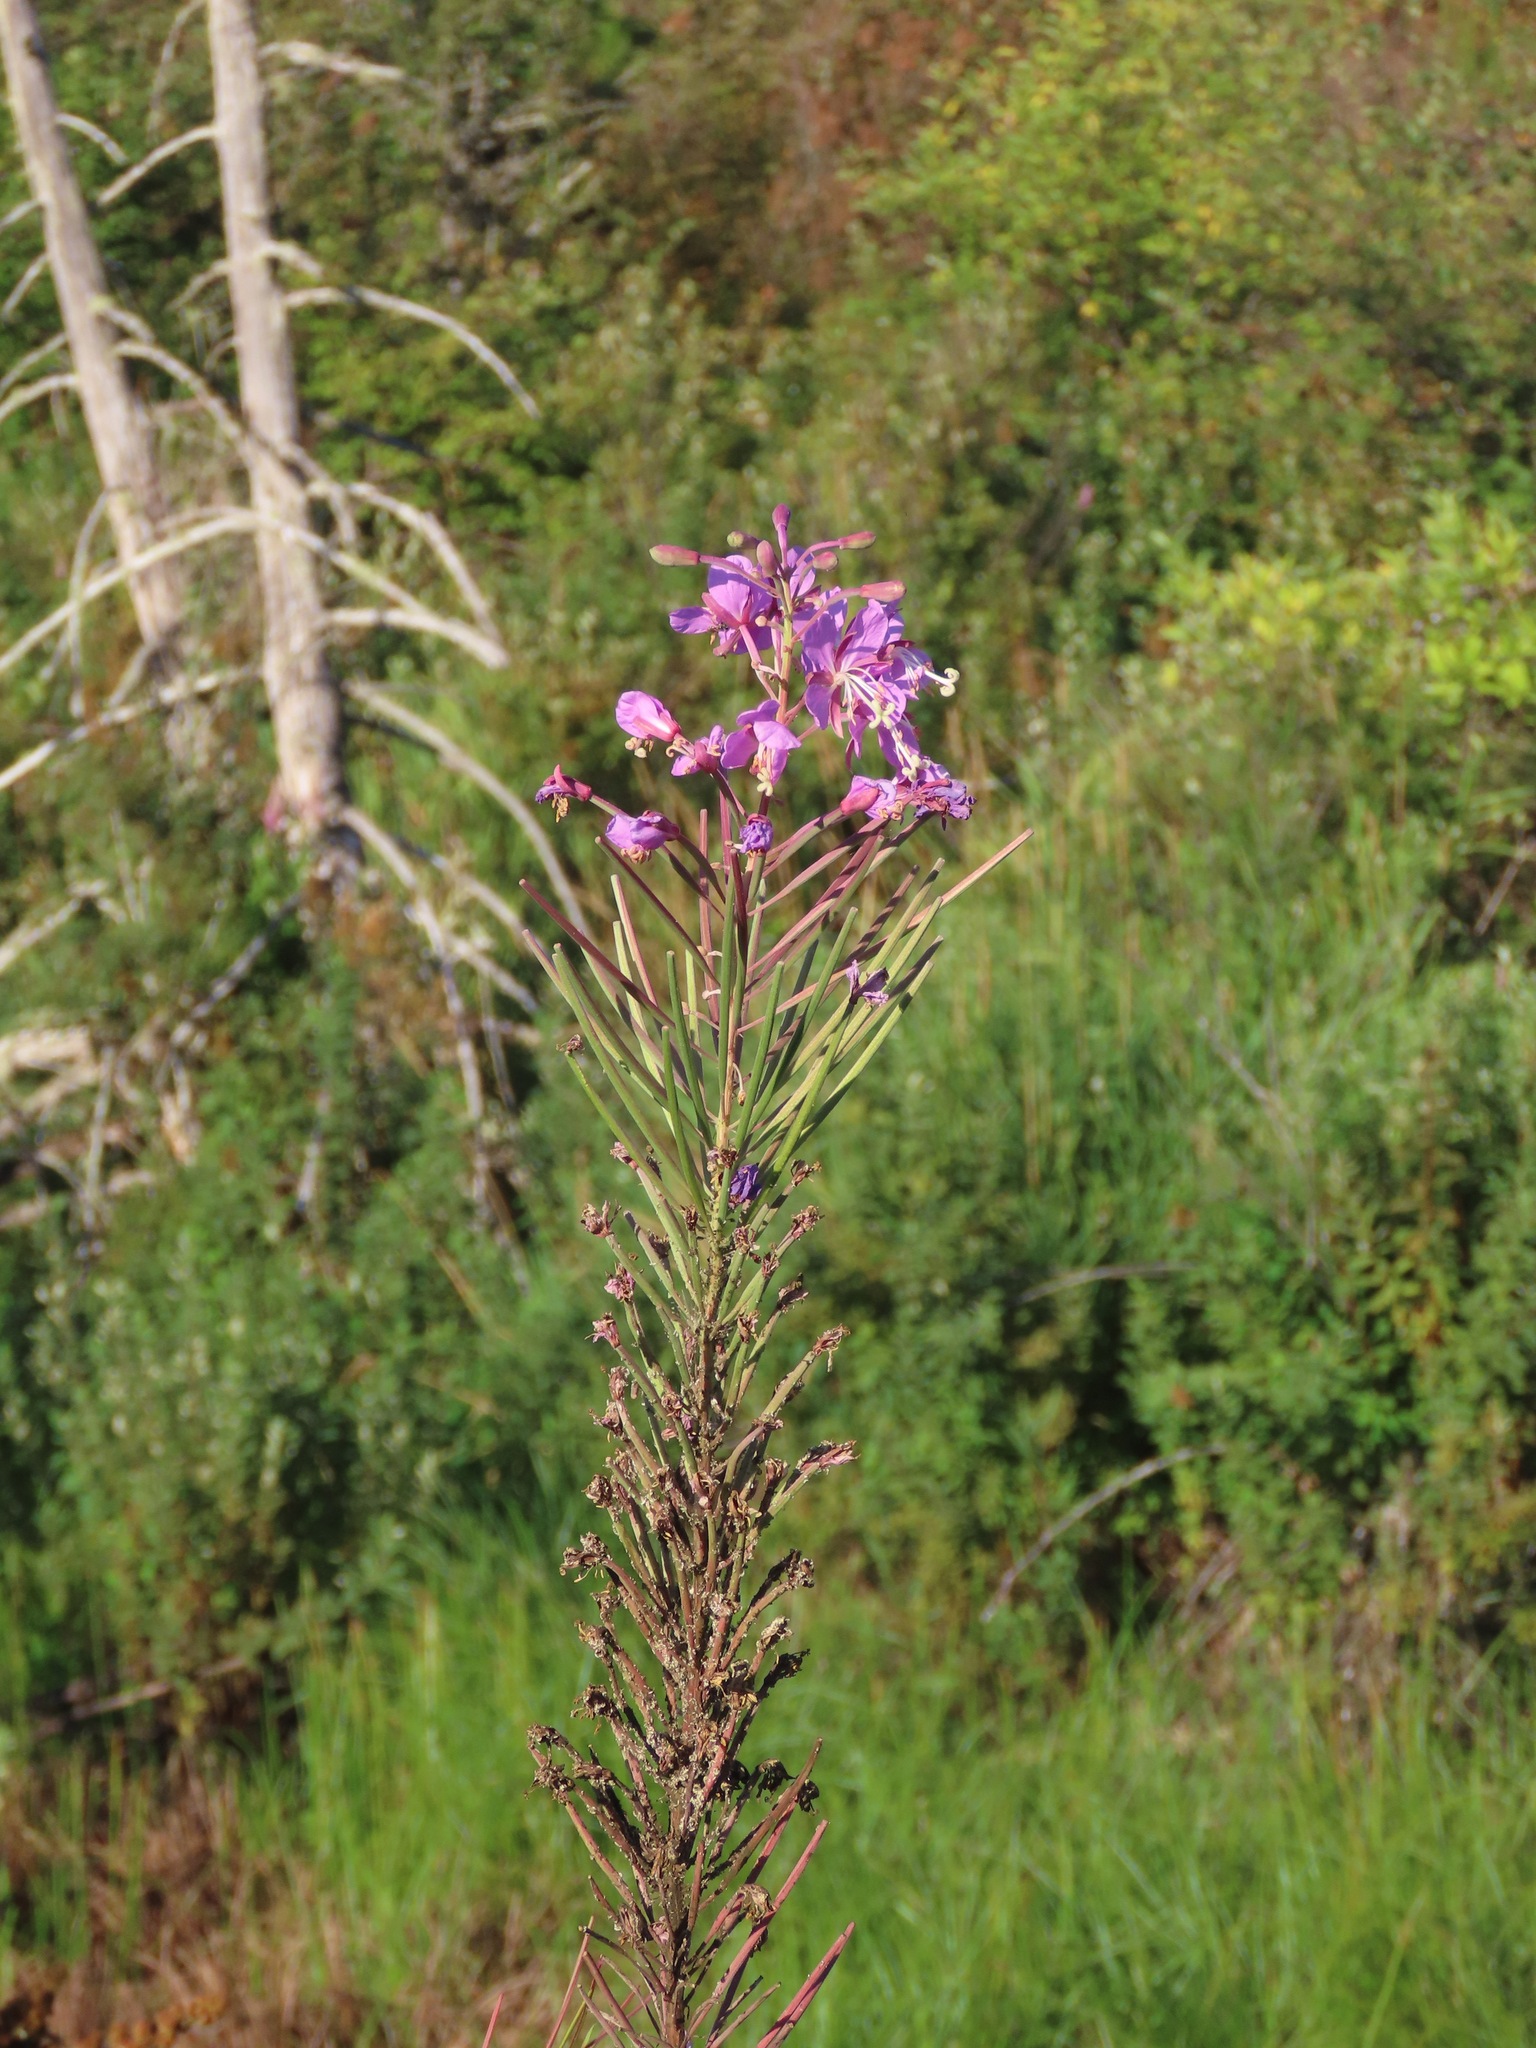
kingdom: Plantae
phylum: Tracheophyta
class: Magnoliopsida
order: Myrtales
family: Onagraceae
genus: Chamaenerion
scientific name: Chamaenerion angustifolium
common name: Fireweed
